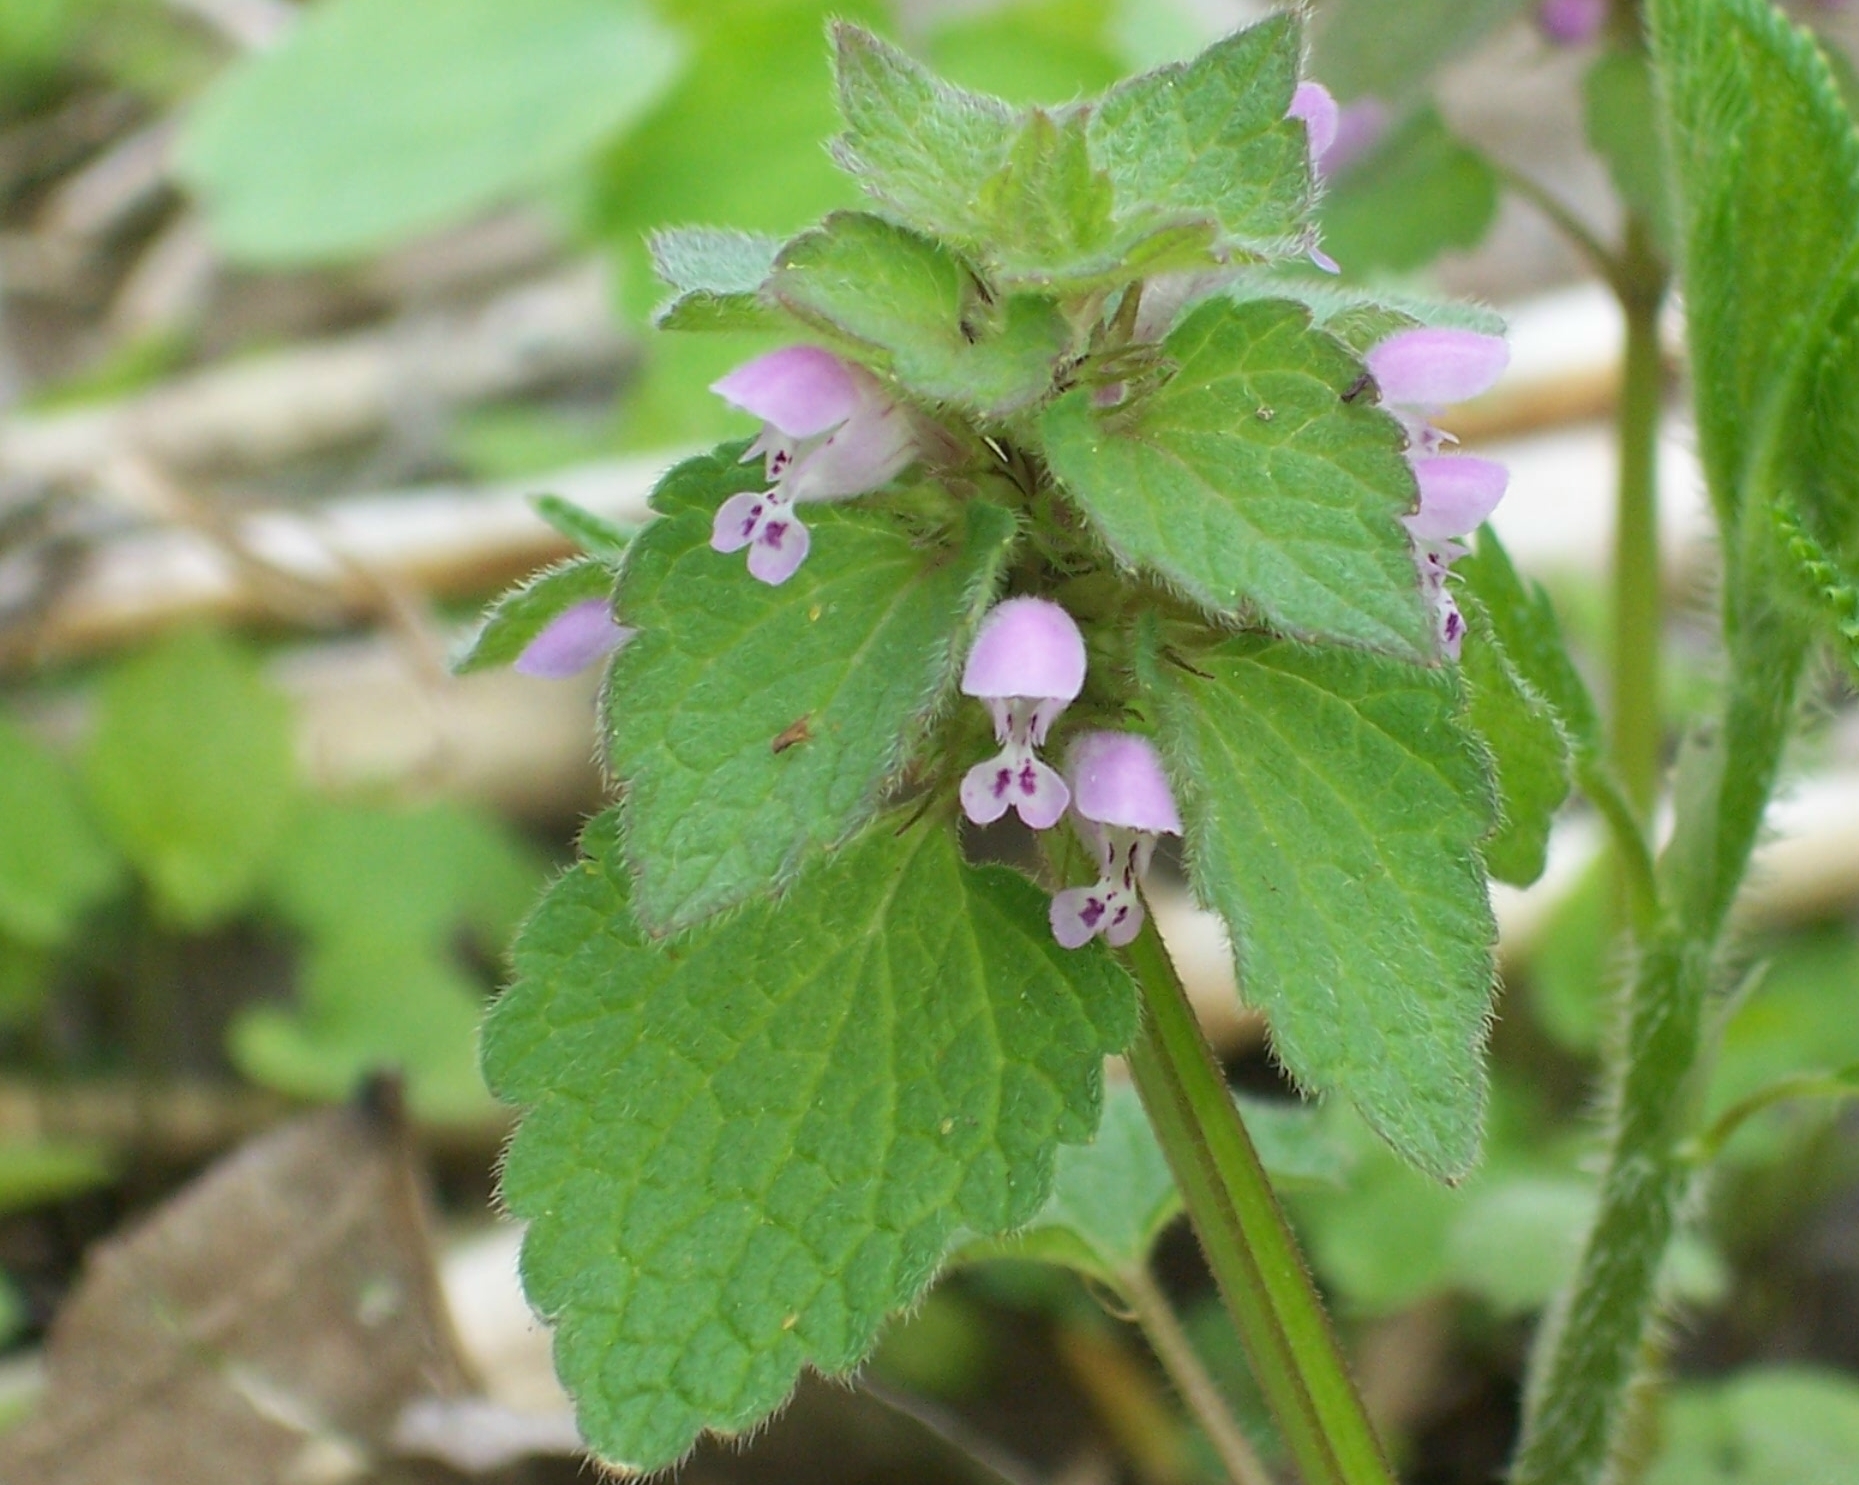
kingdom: Plantae
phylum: Tracheophyta
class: Magnoliopsida
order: Lamiales
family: Lamiaceae
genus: Lamium
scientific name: Lamium purpureum
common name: Red dead-nettle
